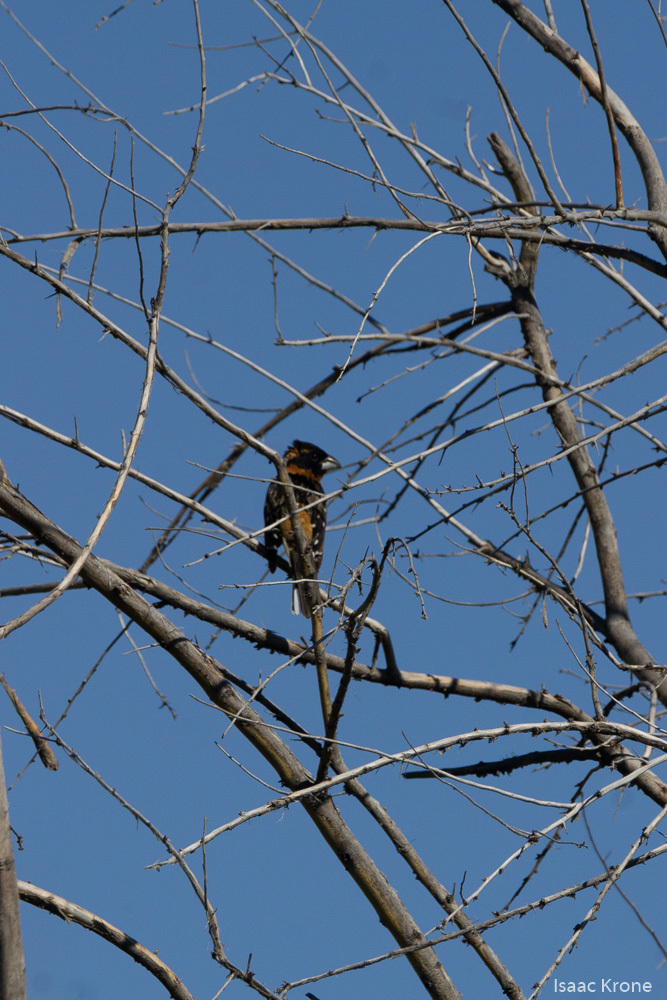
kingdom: Animalia
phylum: Chordata
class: Aves
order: Passeriformes
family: Cardinalidae
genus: Pheucticus
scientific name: Pheucticus melanocephalus
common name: Black-headed grosbeak
